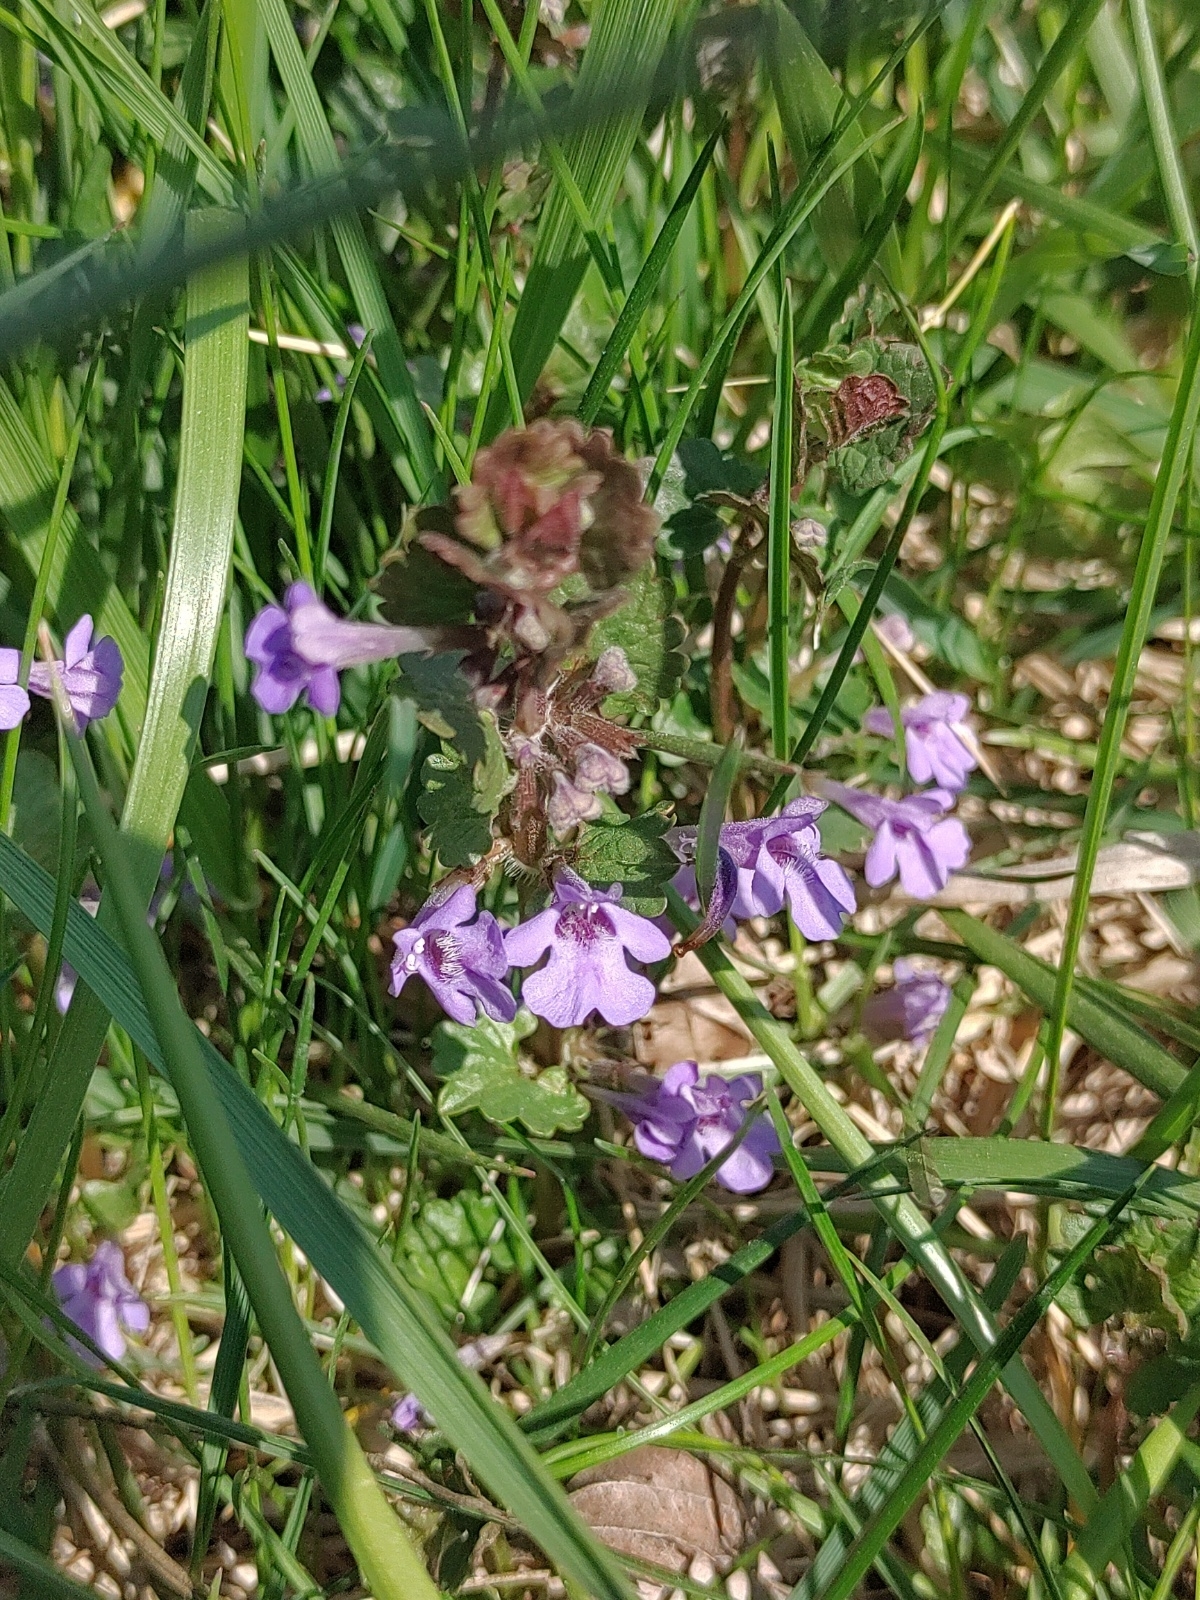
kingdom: Plantae
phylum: Tracheophyta
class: Magnoliopsida
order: Lamiales
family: Lamiaceae
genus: Glechoma
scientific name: Glechoma hederacea
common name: Ground ivy
